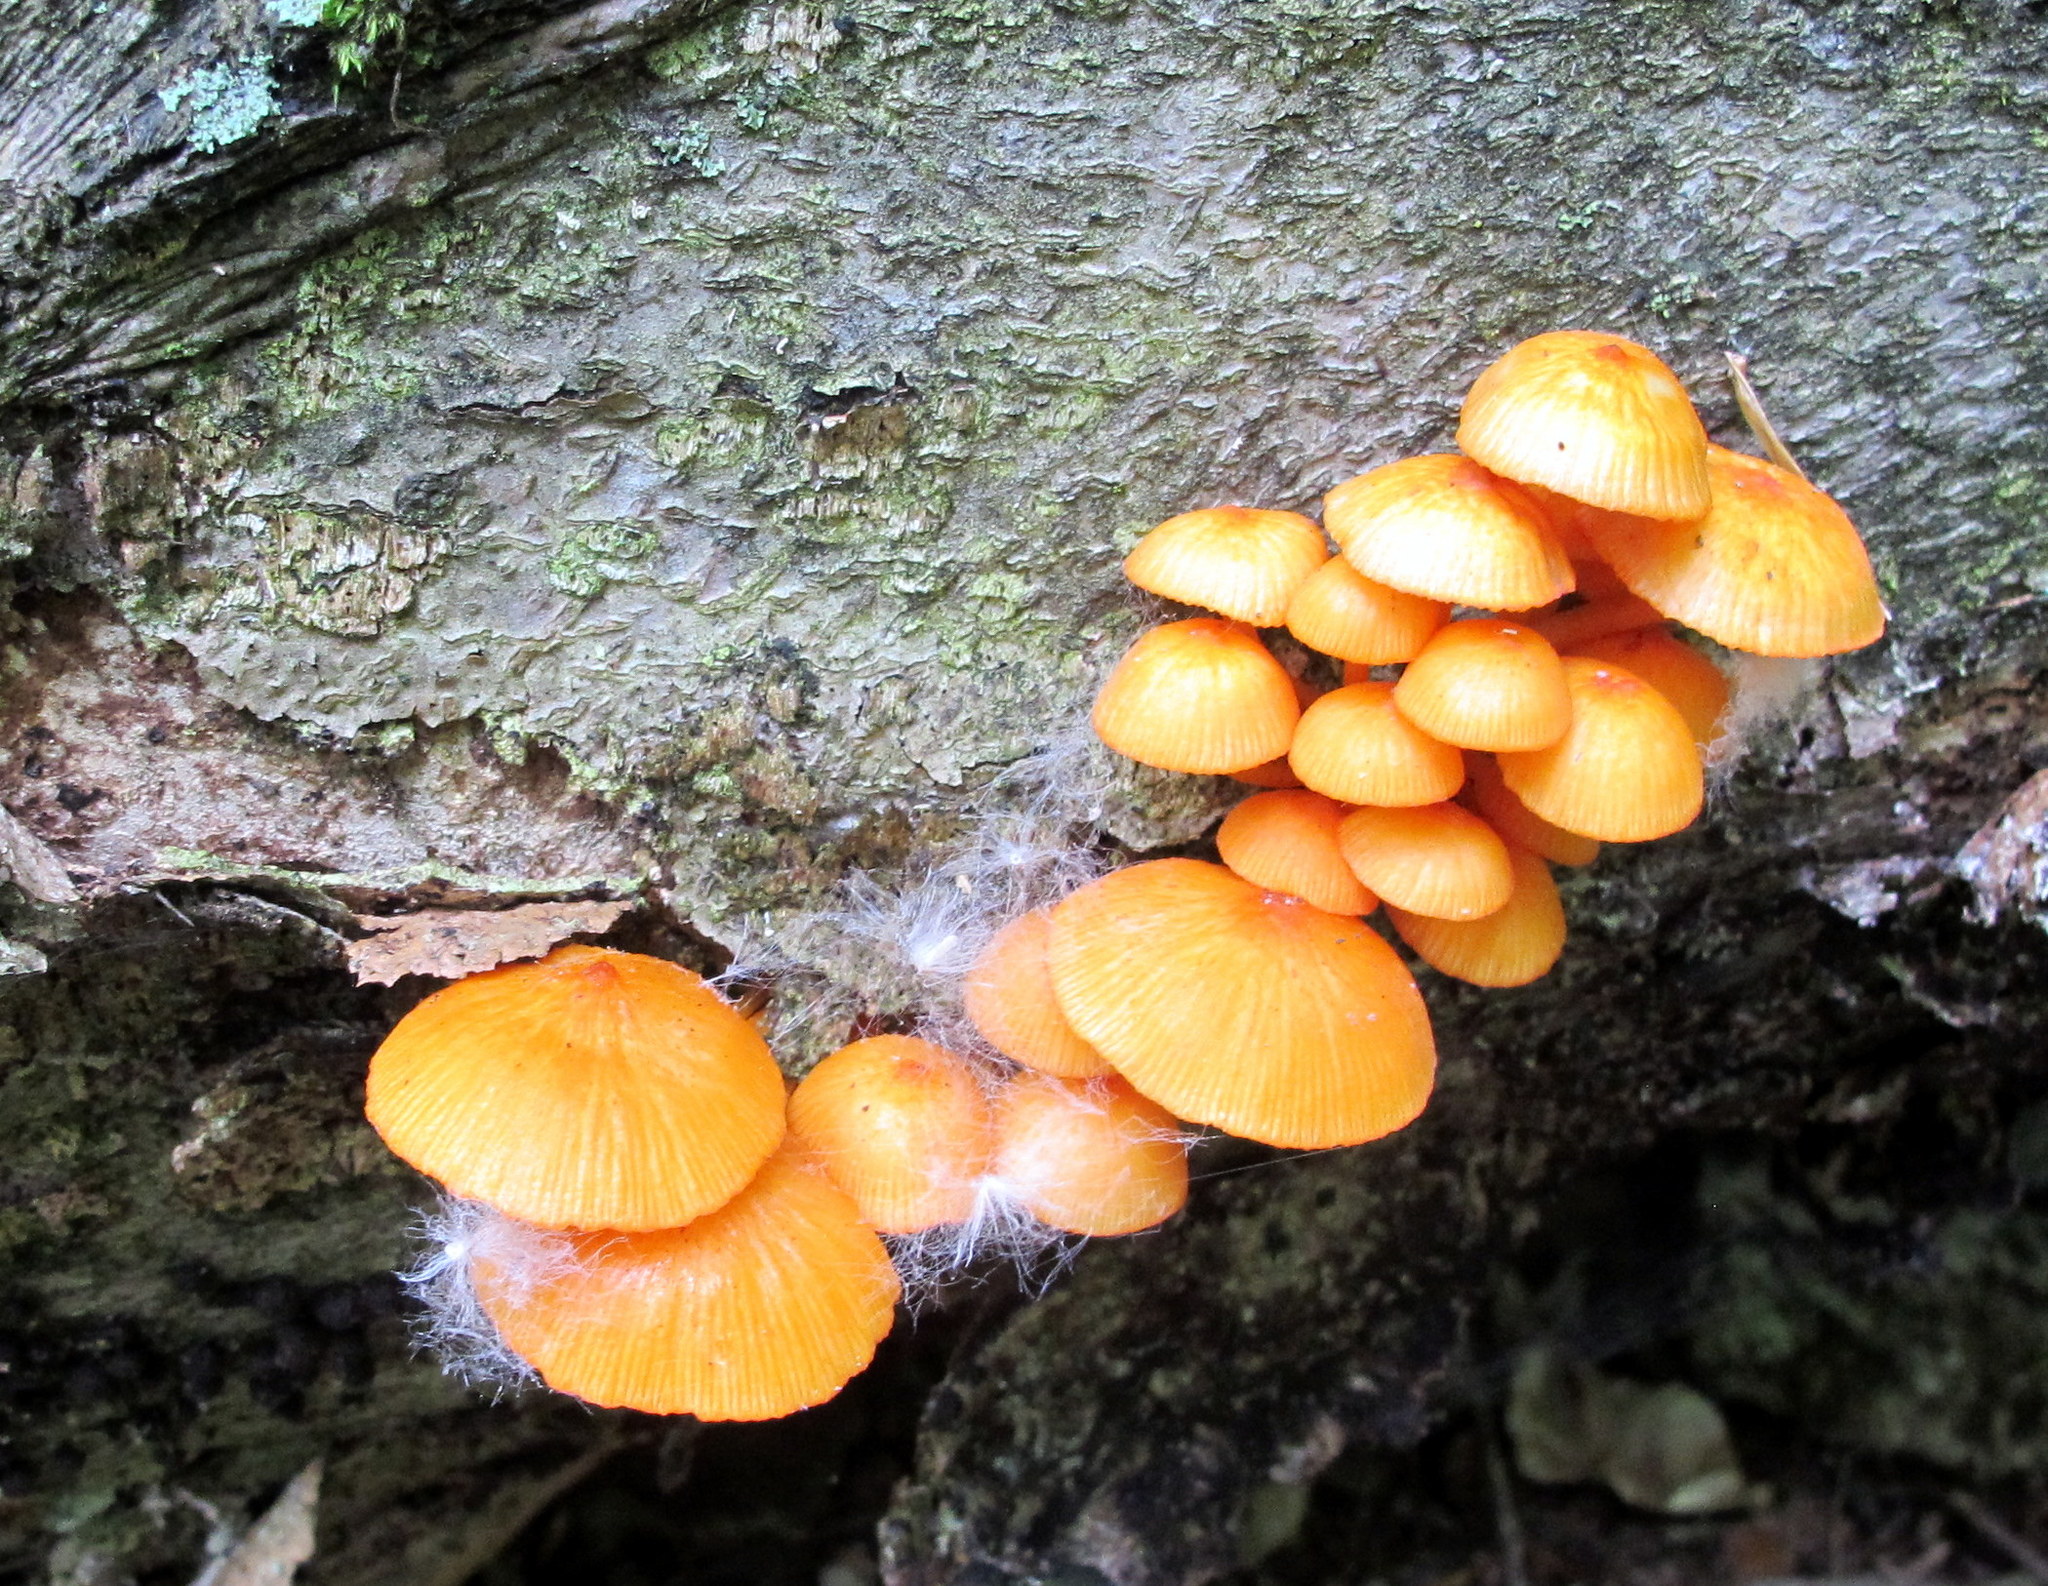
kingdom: Fungi
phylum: Basidiomycota
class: Agaricomycetes
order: Agaricales
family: Mycenaceae
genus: Mycena
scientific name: Mycena leaiana
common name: Orange mycena
